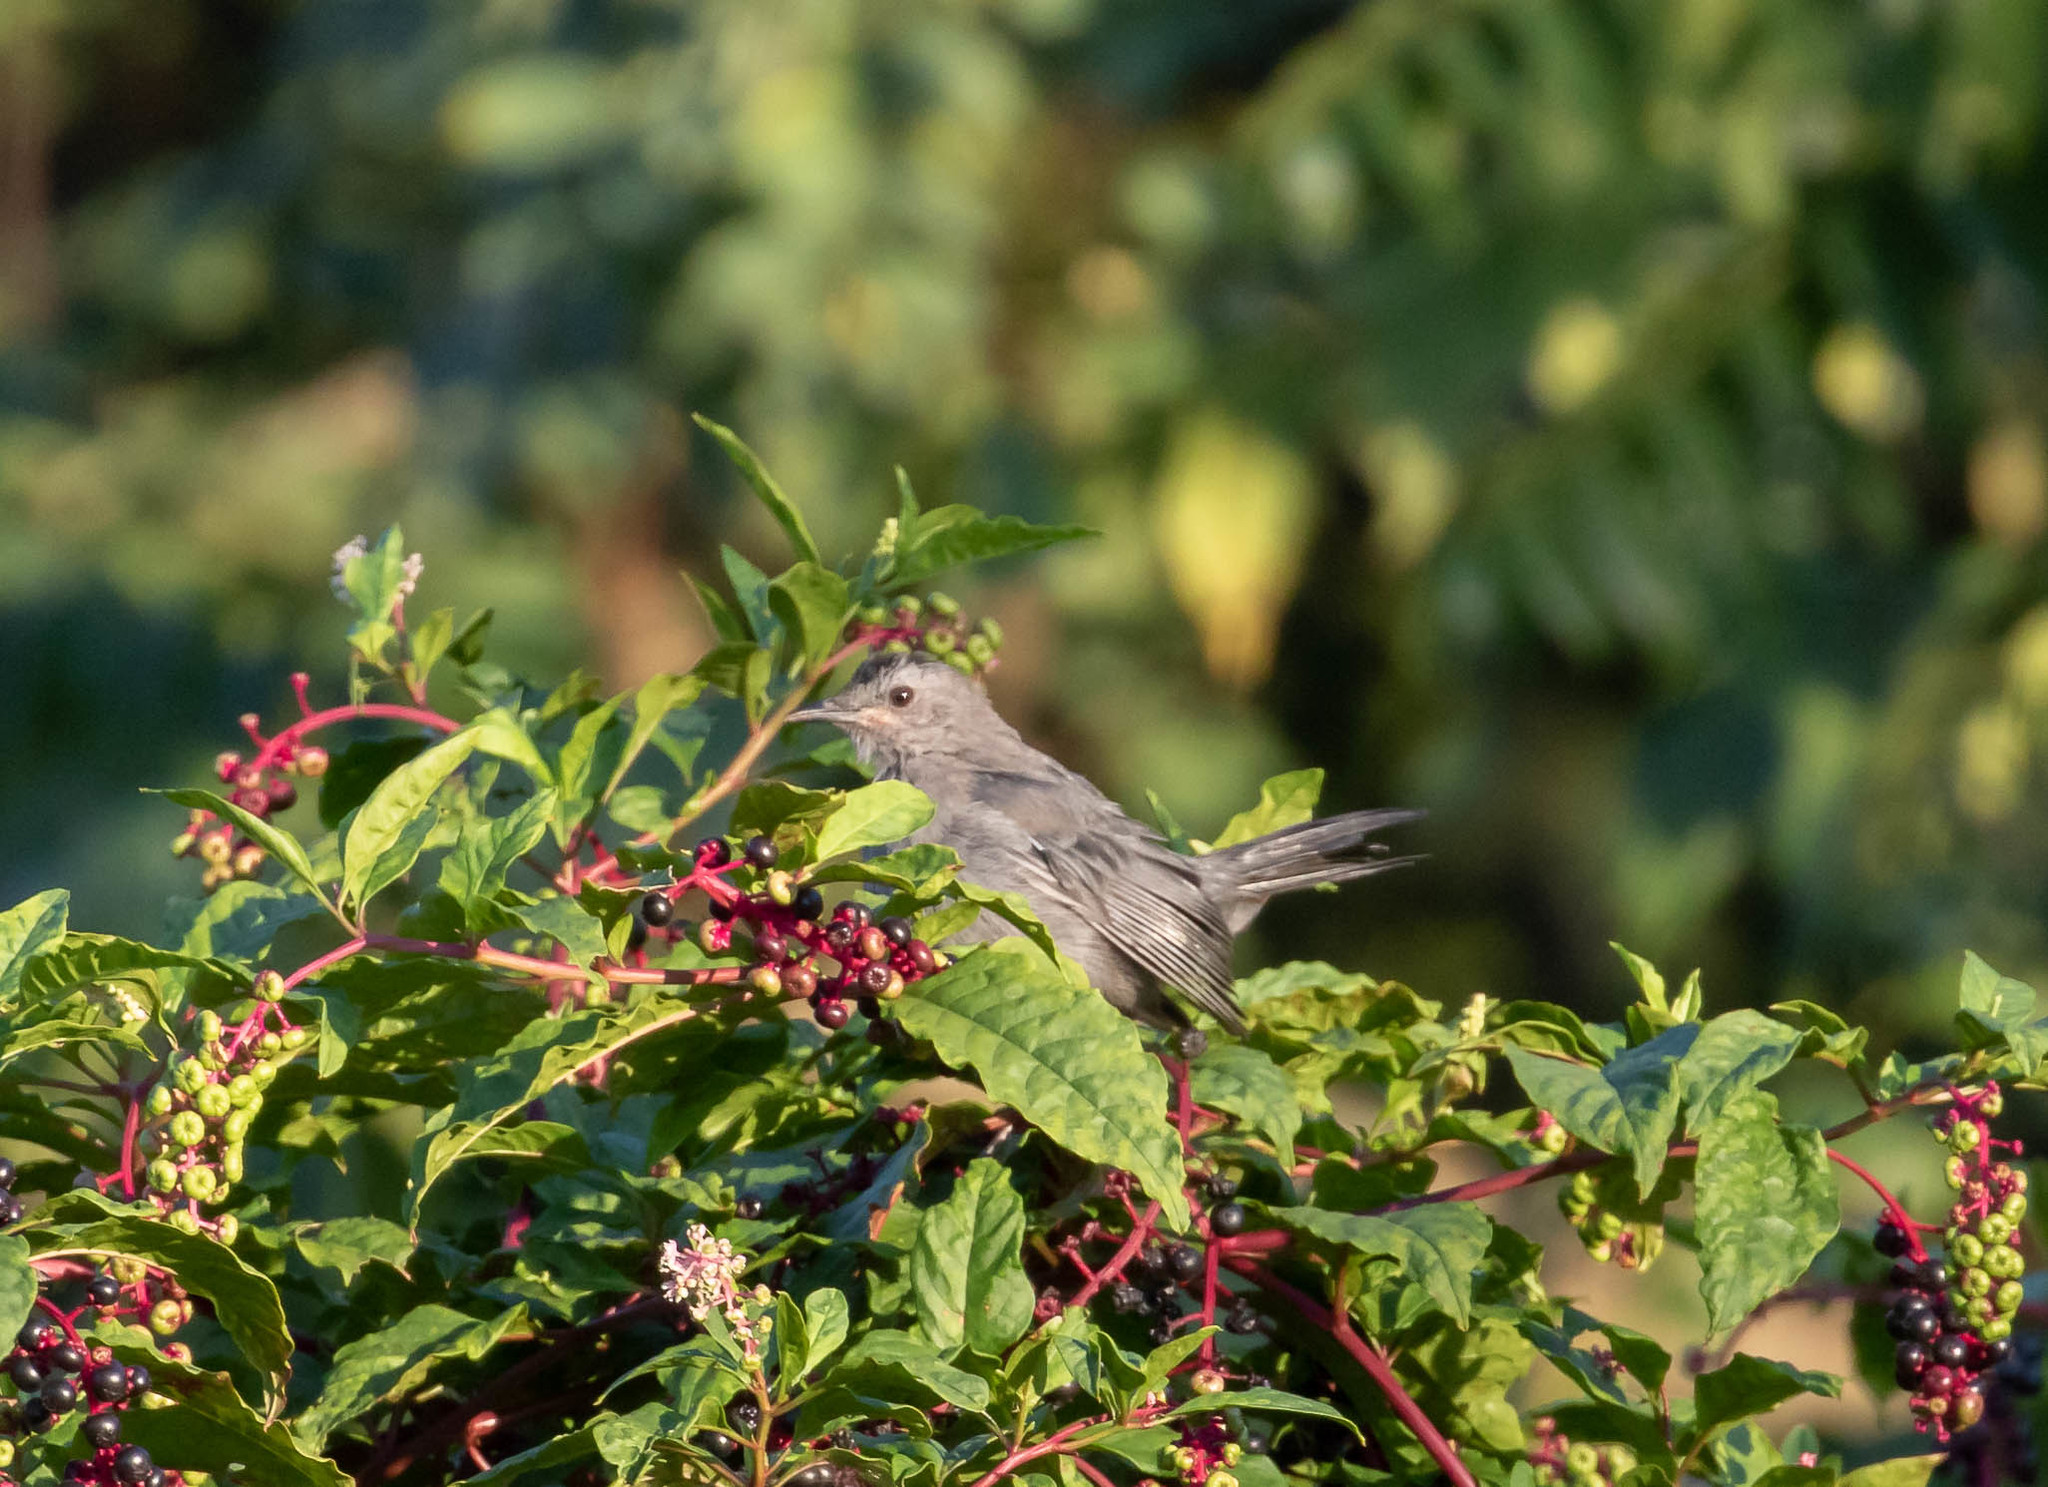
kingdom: Animalia
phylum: Chordata
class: Aves
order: Passeriformes
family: Mimidae
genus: Dumetella
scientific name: Dumetella carolinensis
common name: Gray catbird
